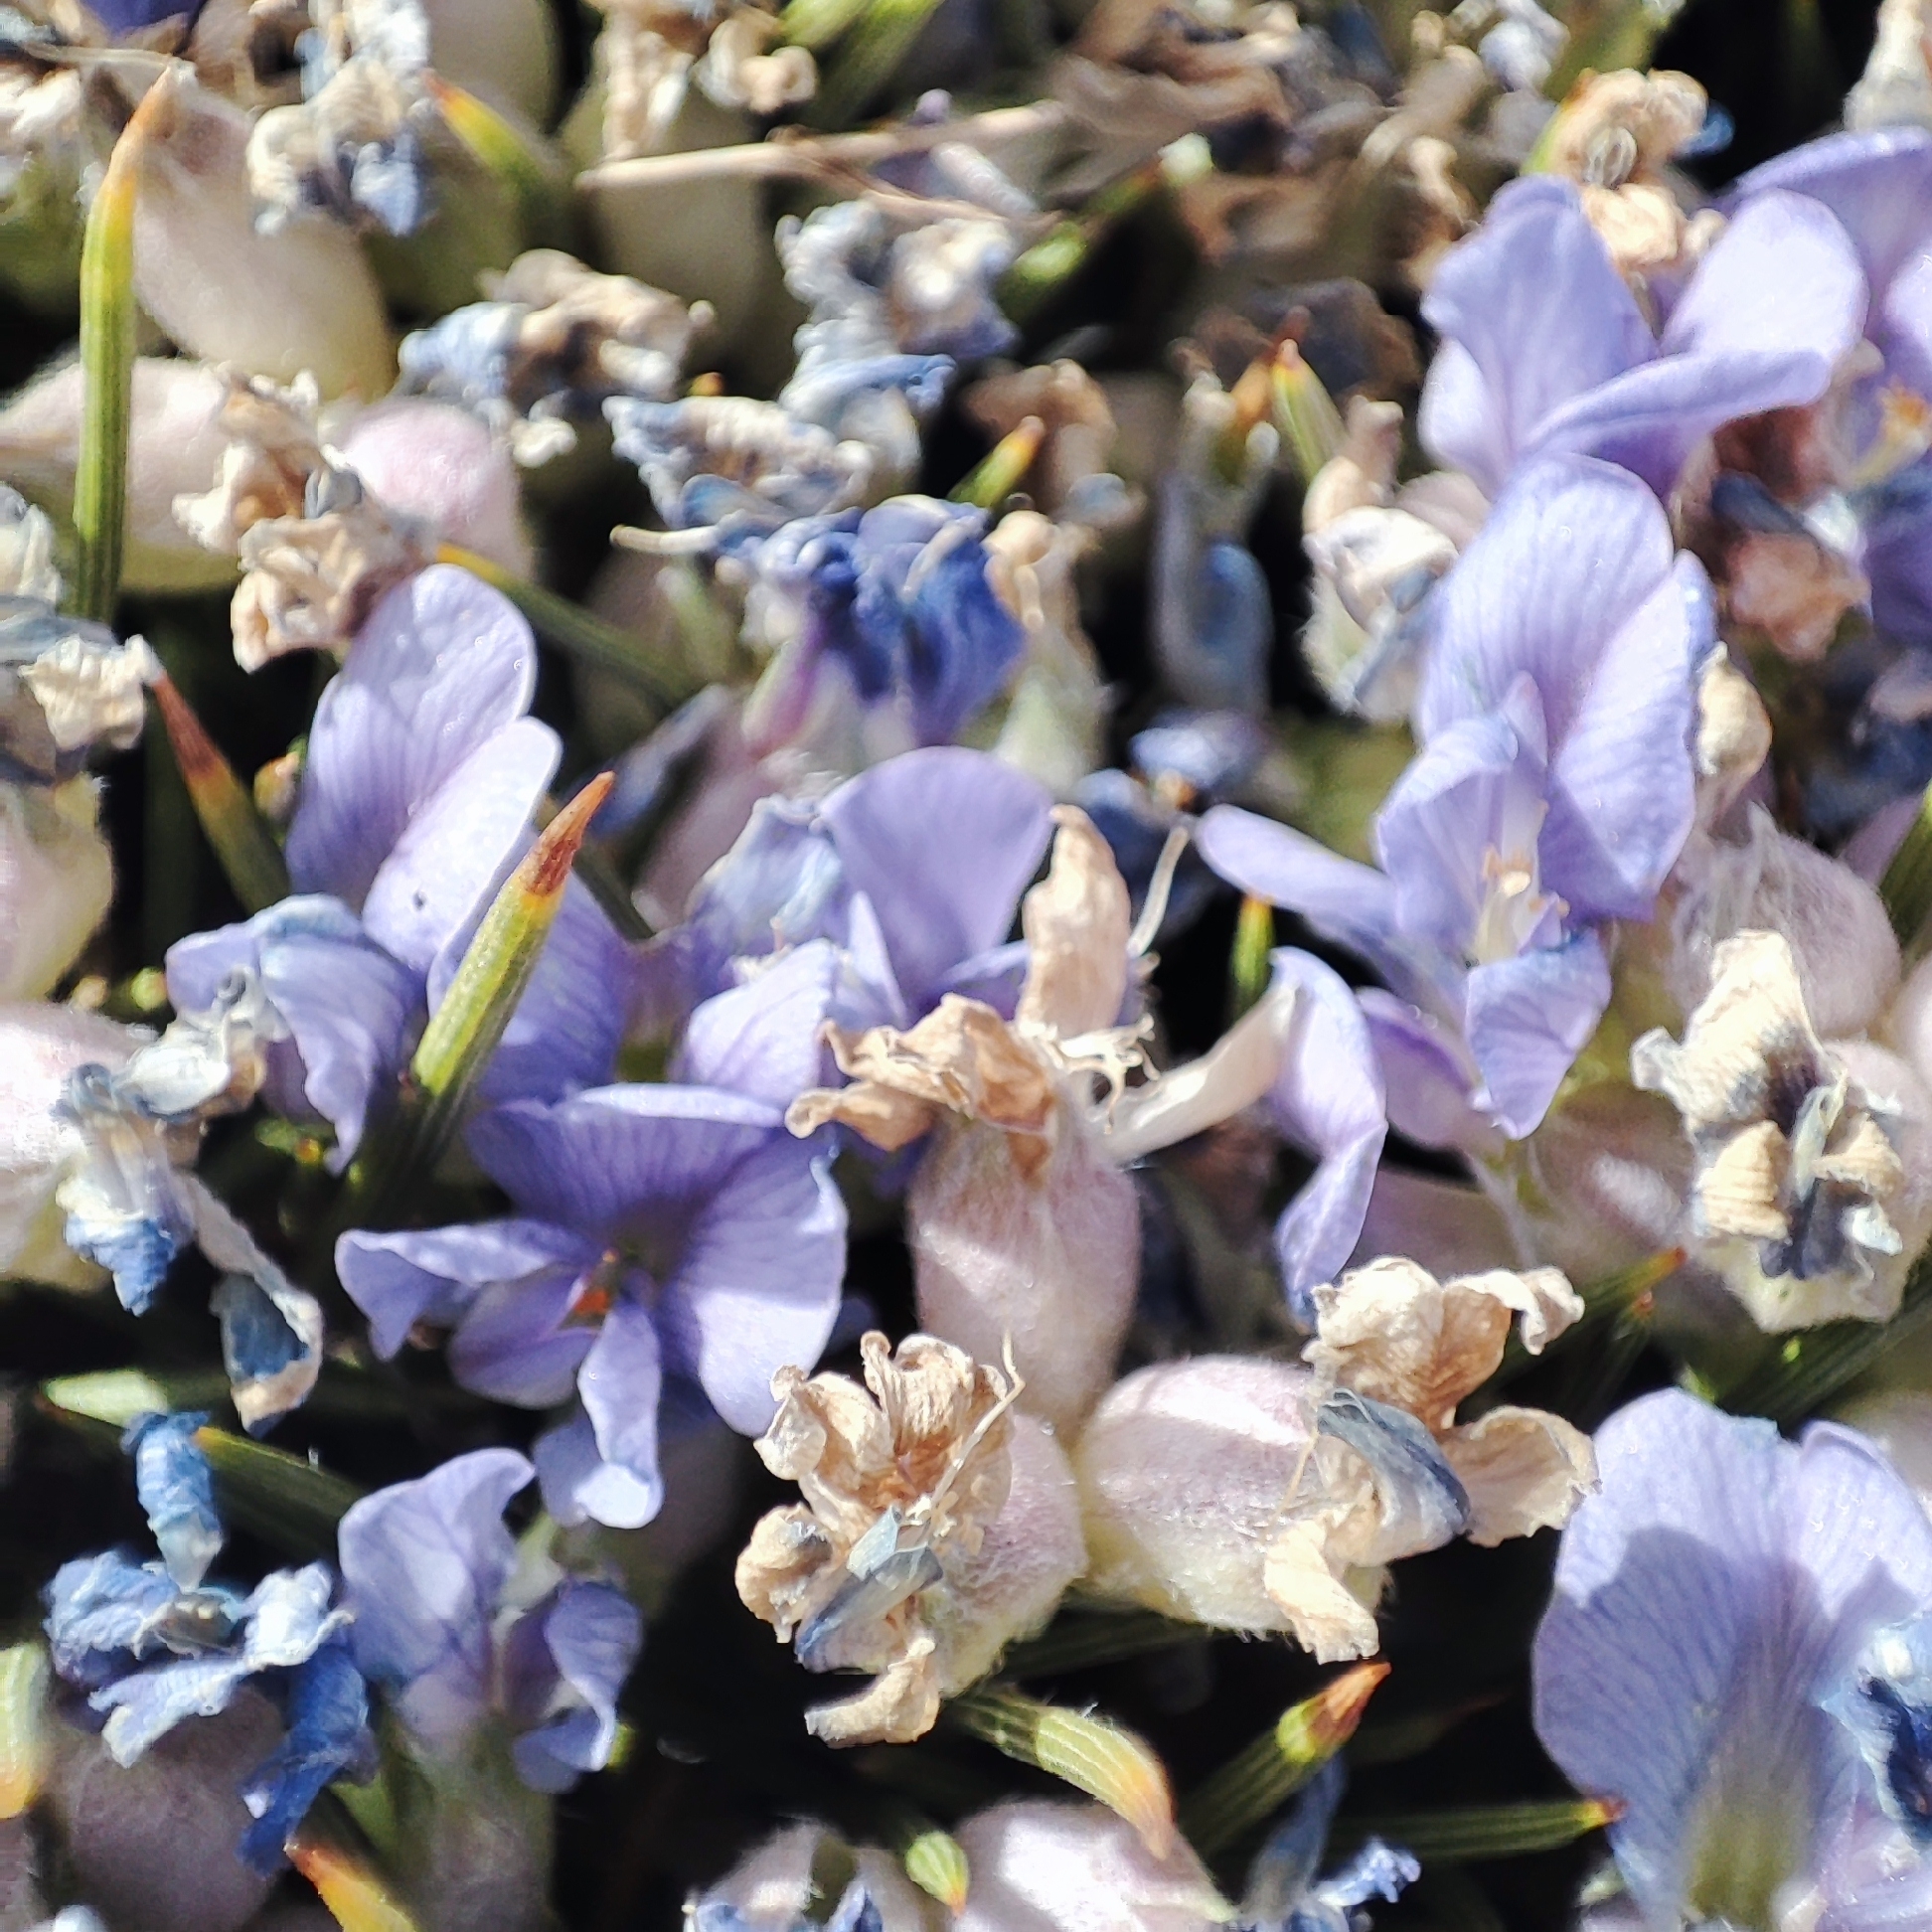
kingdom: Plantae
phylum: Tracheophyta
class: Magnoliopsida
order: Fabales
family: Fabaceae
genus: Erinacea
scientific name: Erinacea anthyllis
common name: Hedgehog-broom
